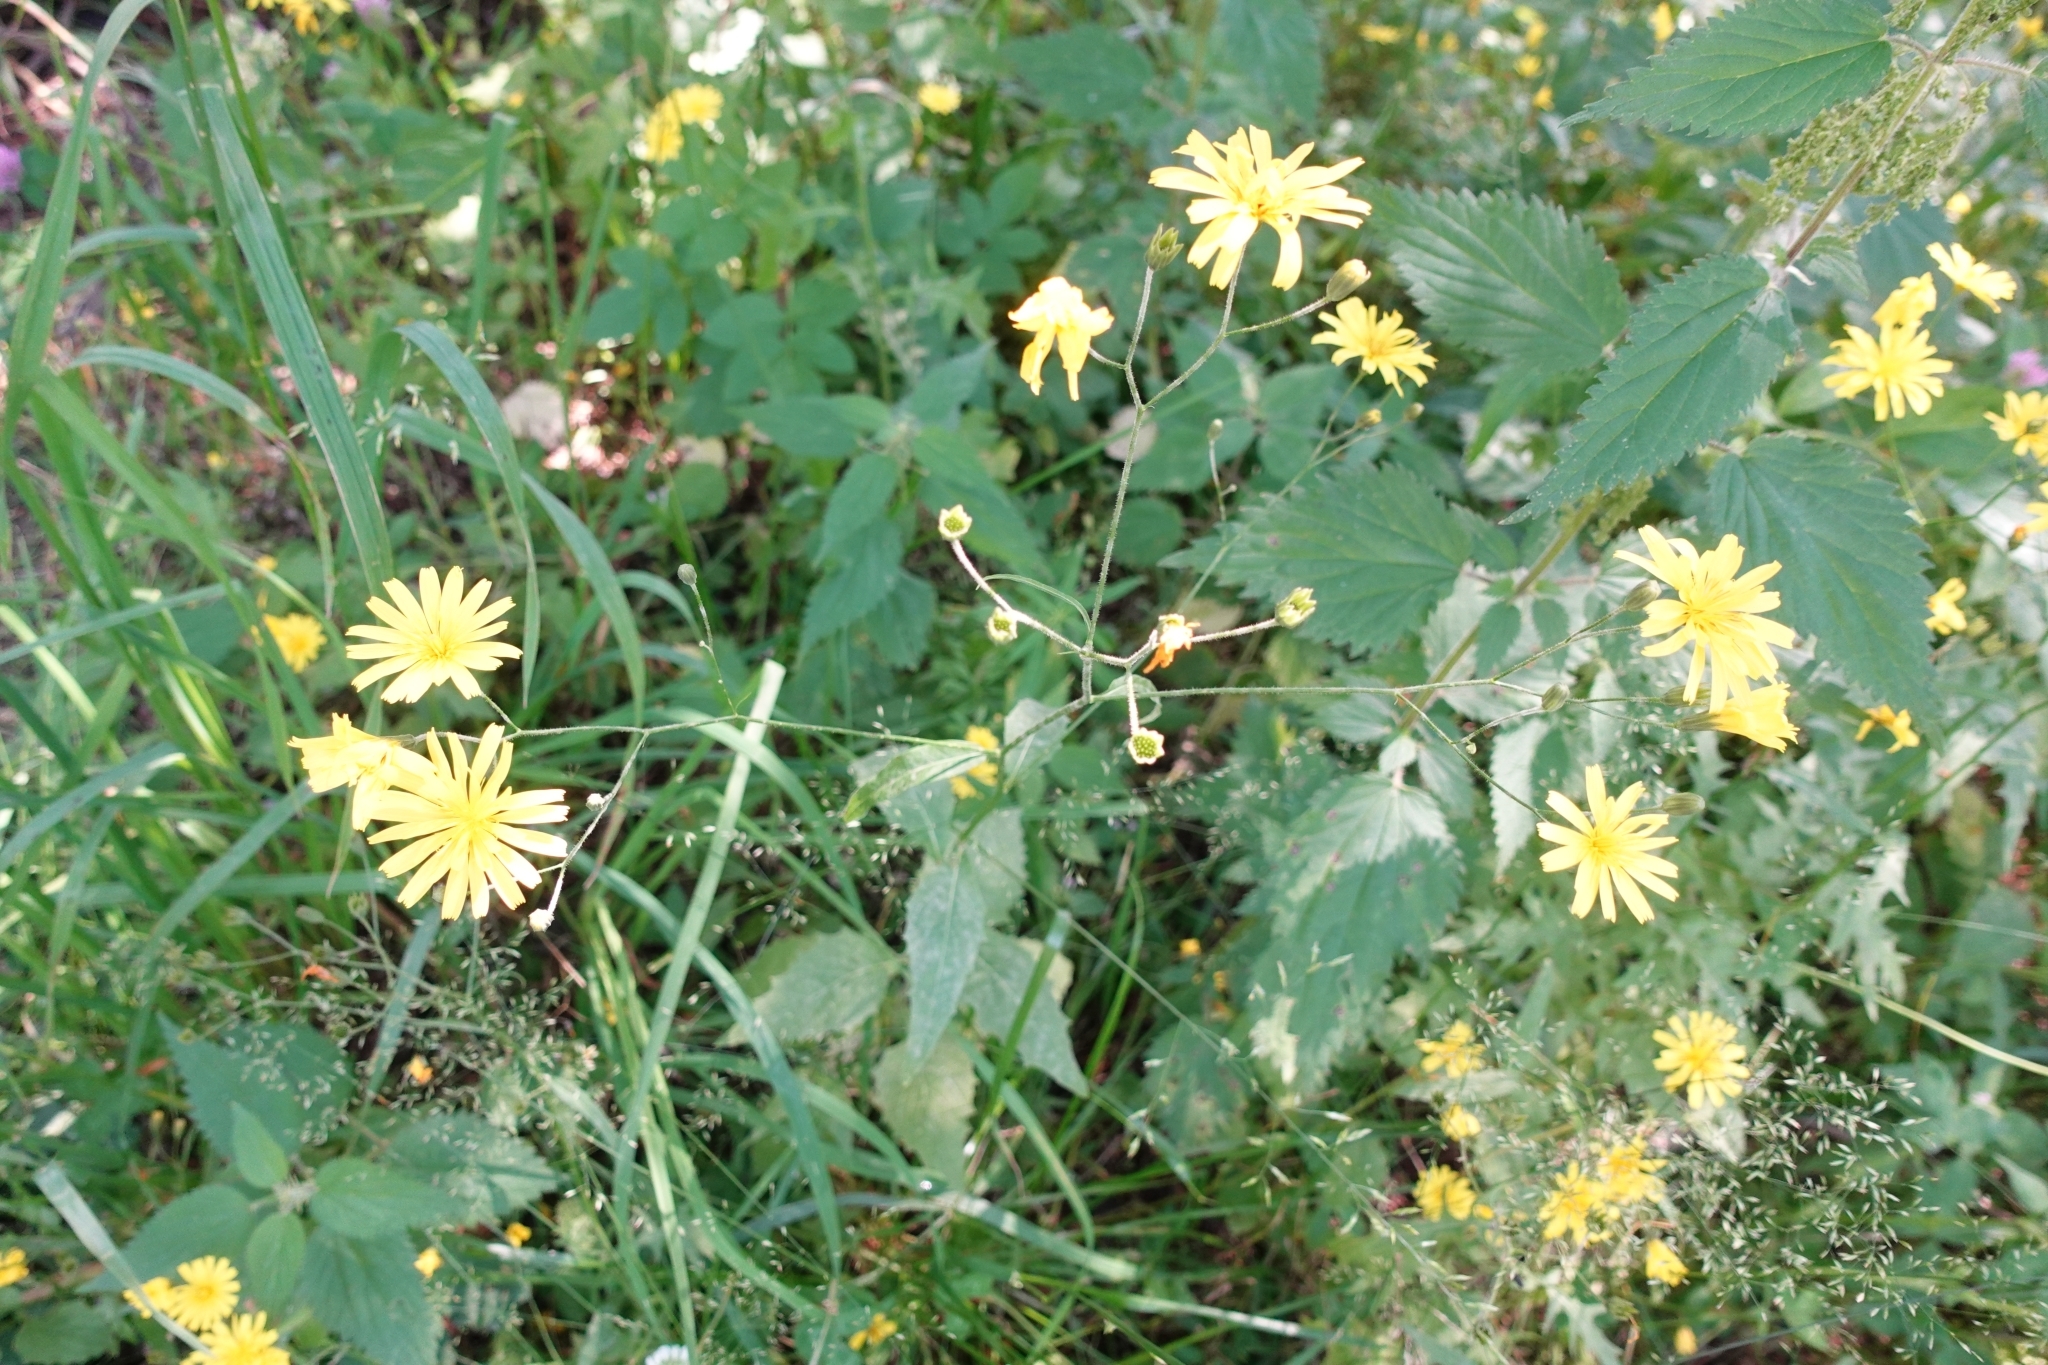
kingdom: Plantae
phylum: Tracheophyta
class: Magnoliopsida
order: Asterales
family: Asteraceae
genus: Lapsana
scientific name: Lapsana communis
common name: Nipplewort
